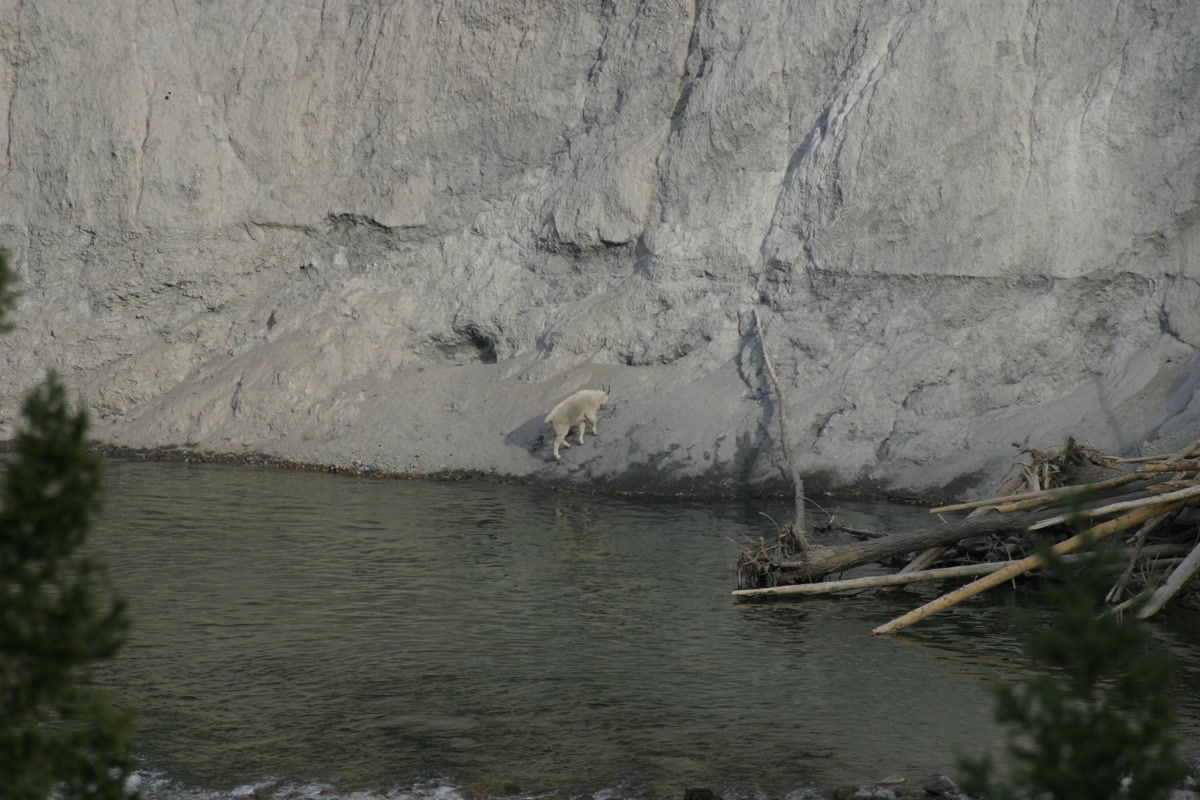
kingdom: Animalia
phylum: Chordata
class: Mammalia
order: Artiodactyla
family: Bovidae
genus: Oreamnos
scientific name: Oreamnos americanus
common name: Mountain goat
